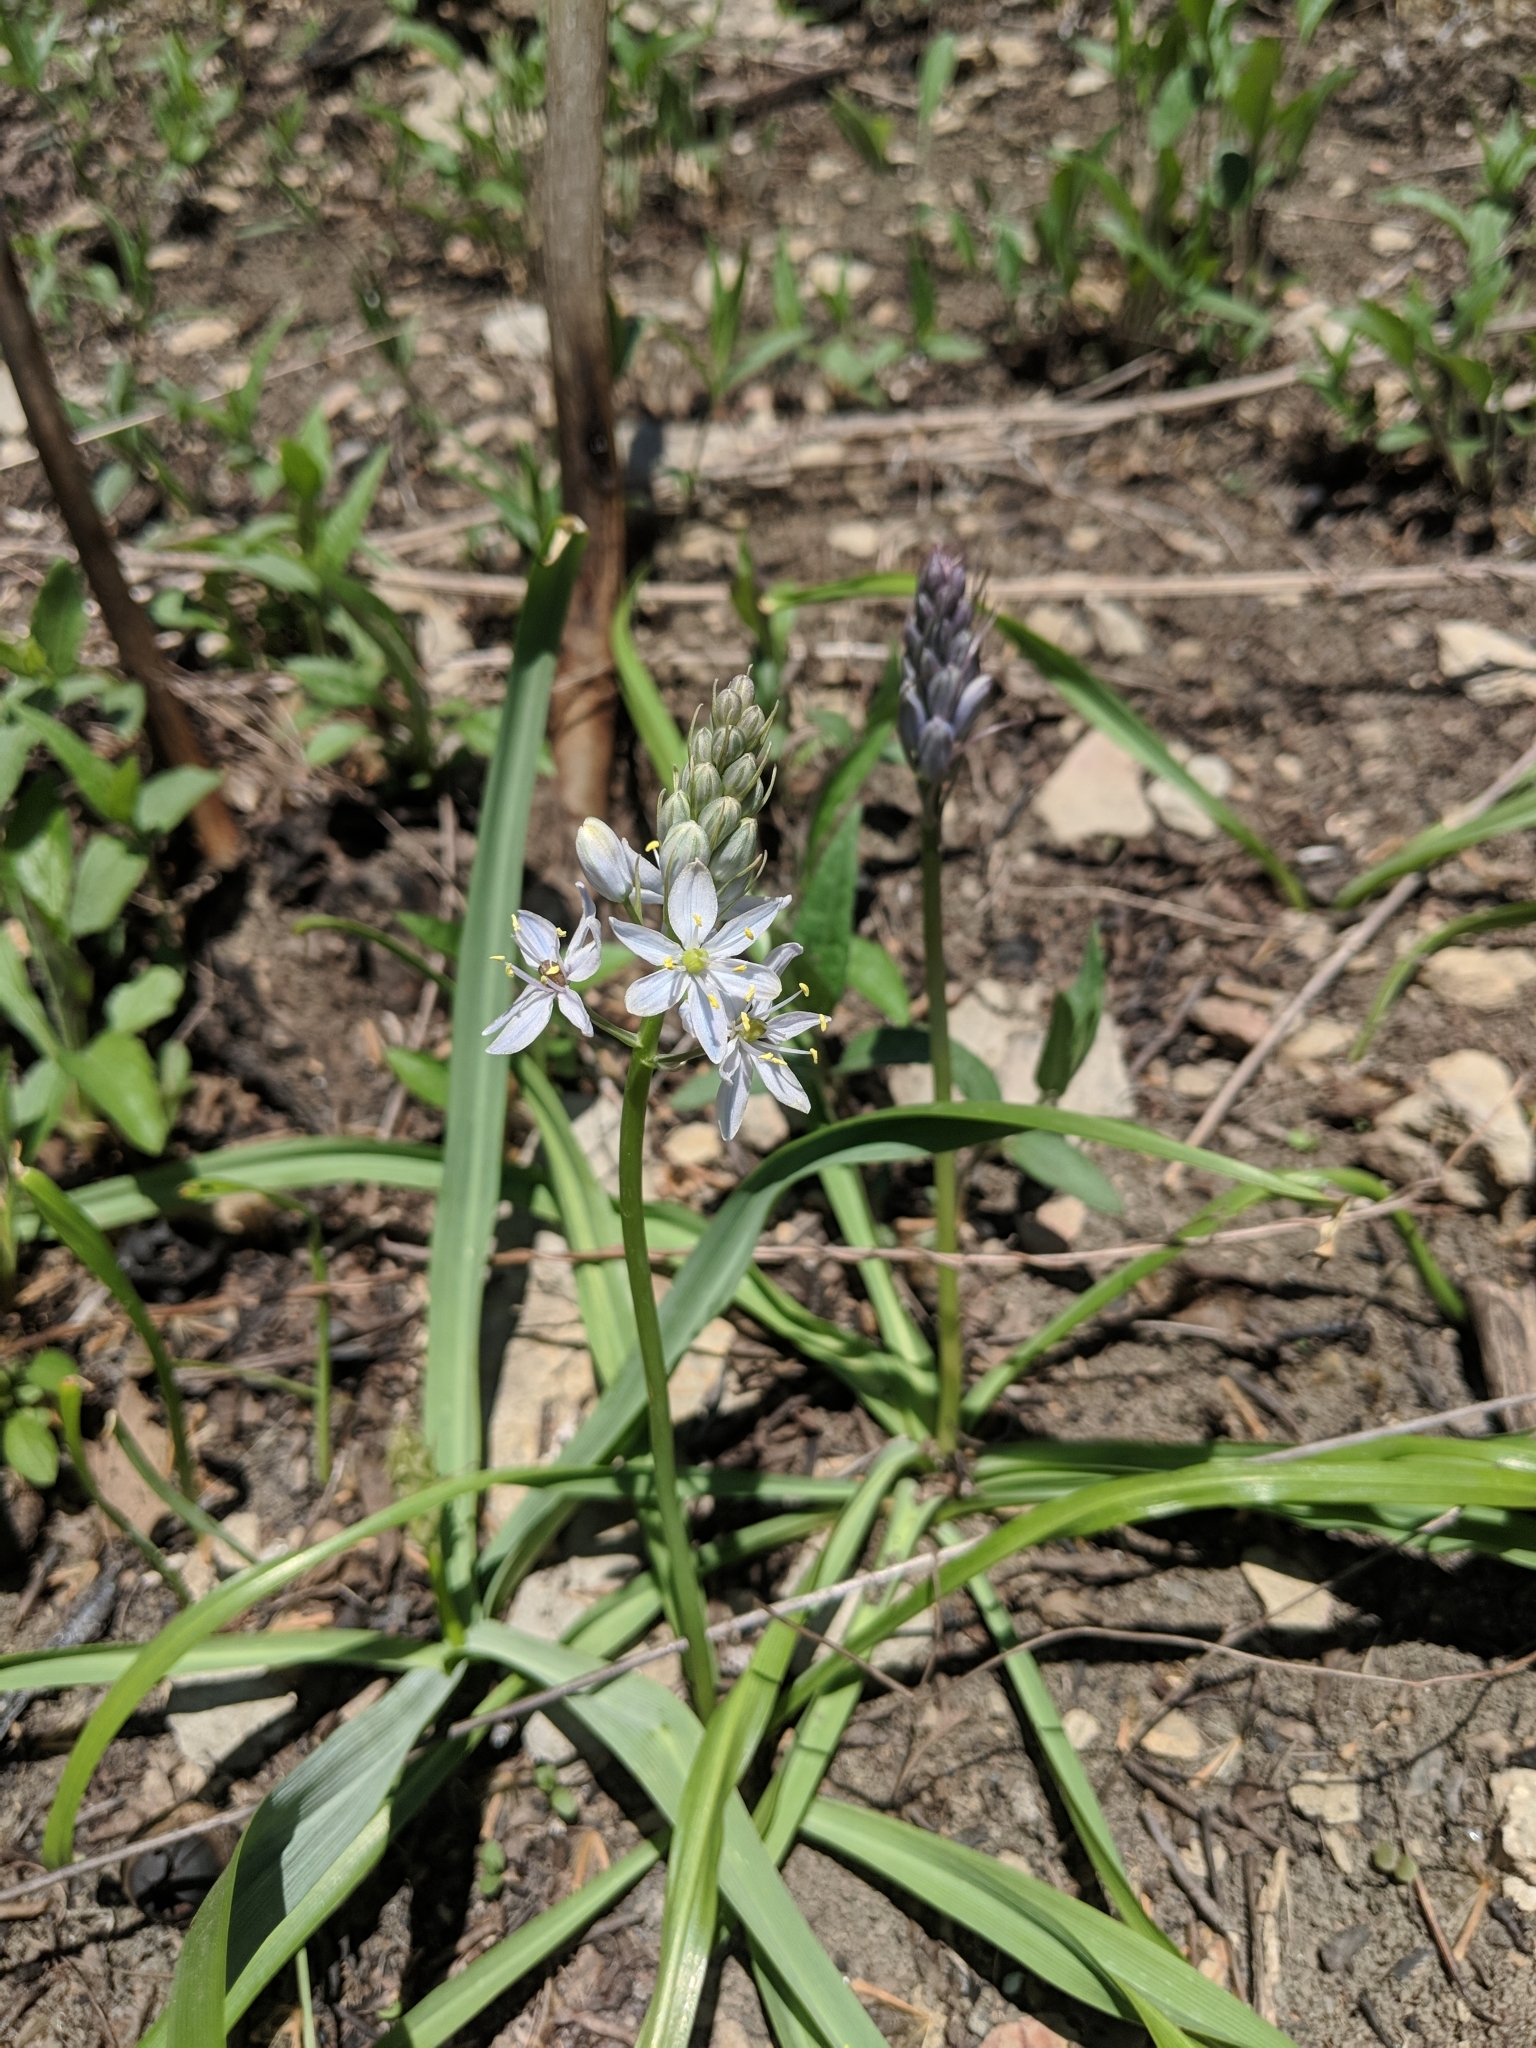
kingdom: Plantae
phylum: Tracheophyta
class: Liliopsida
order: Asparagales
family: Asparagaceae
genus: Camassia
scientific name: Camassia scilloides
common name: Wild hyacinth
